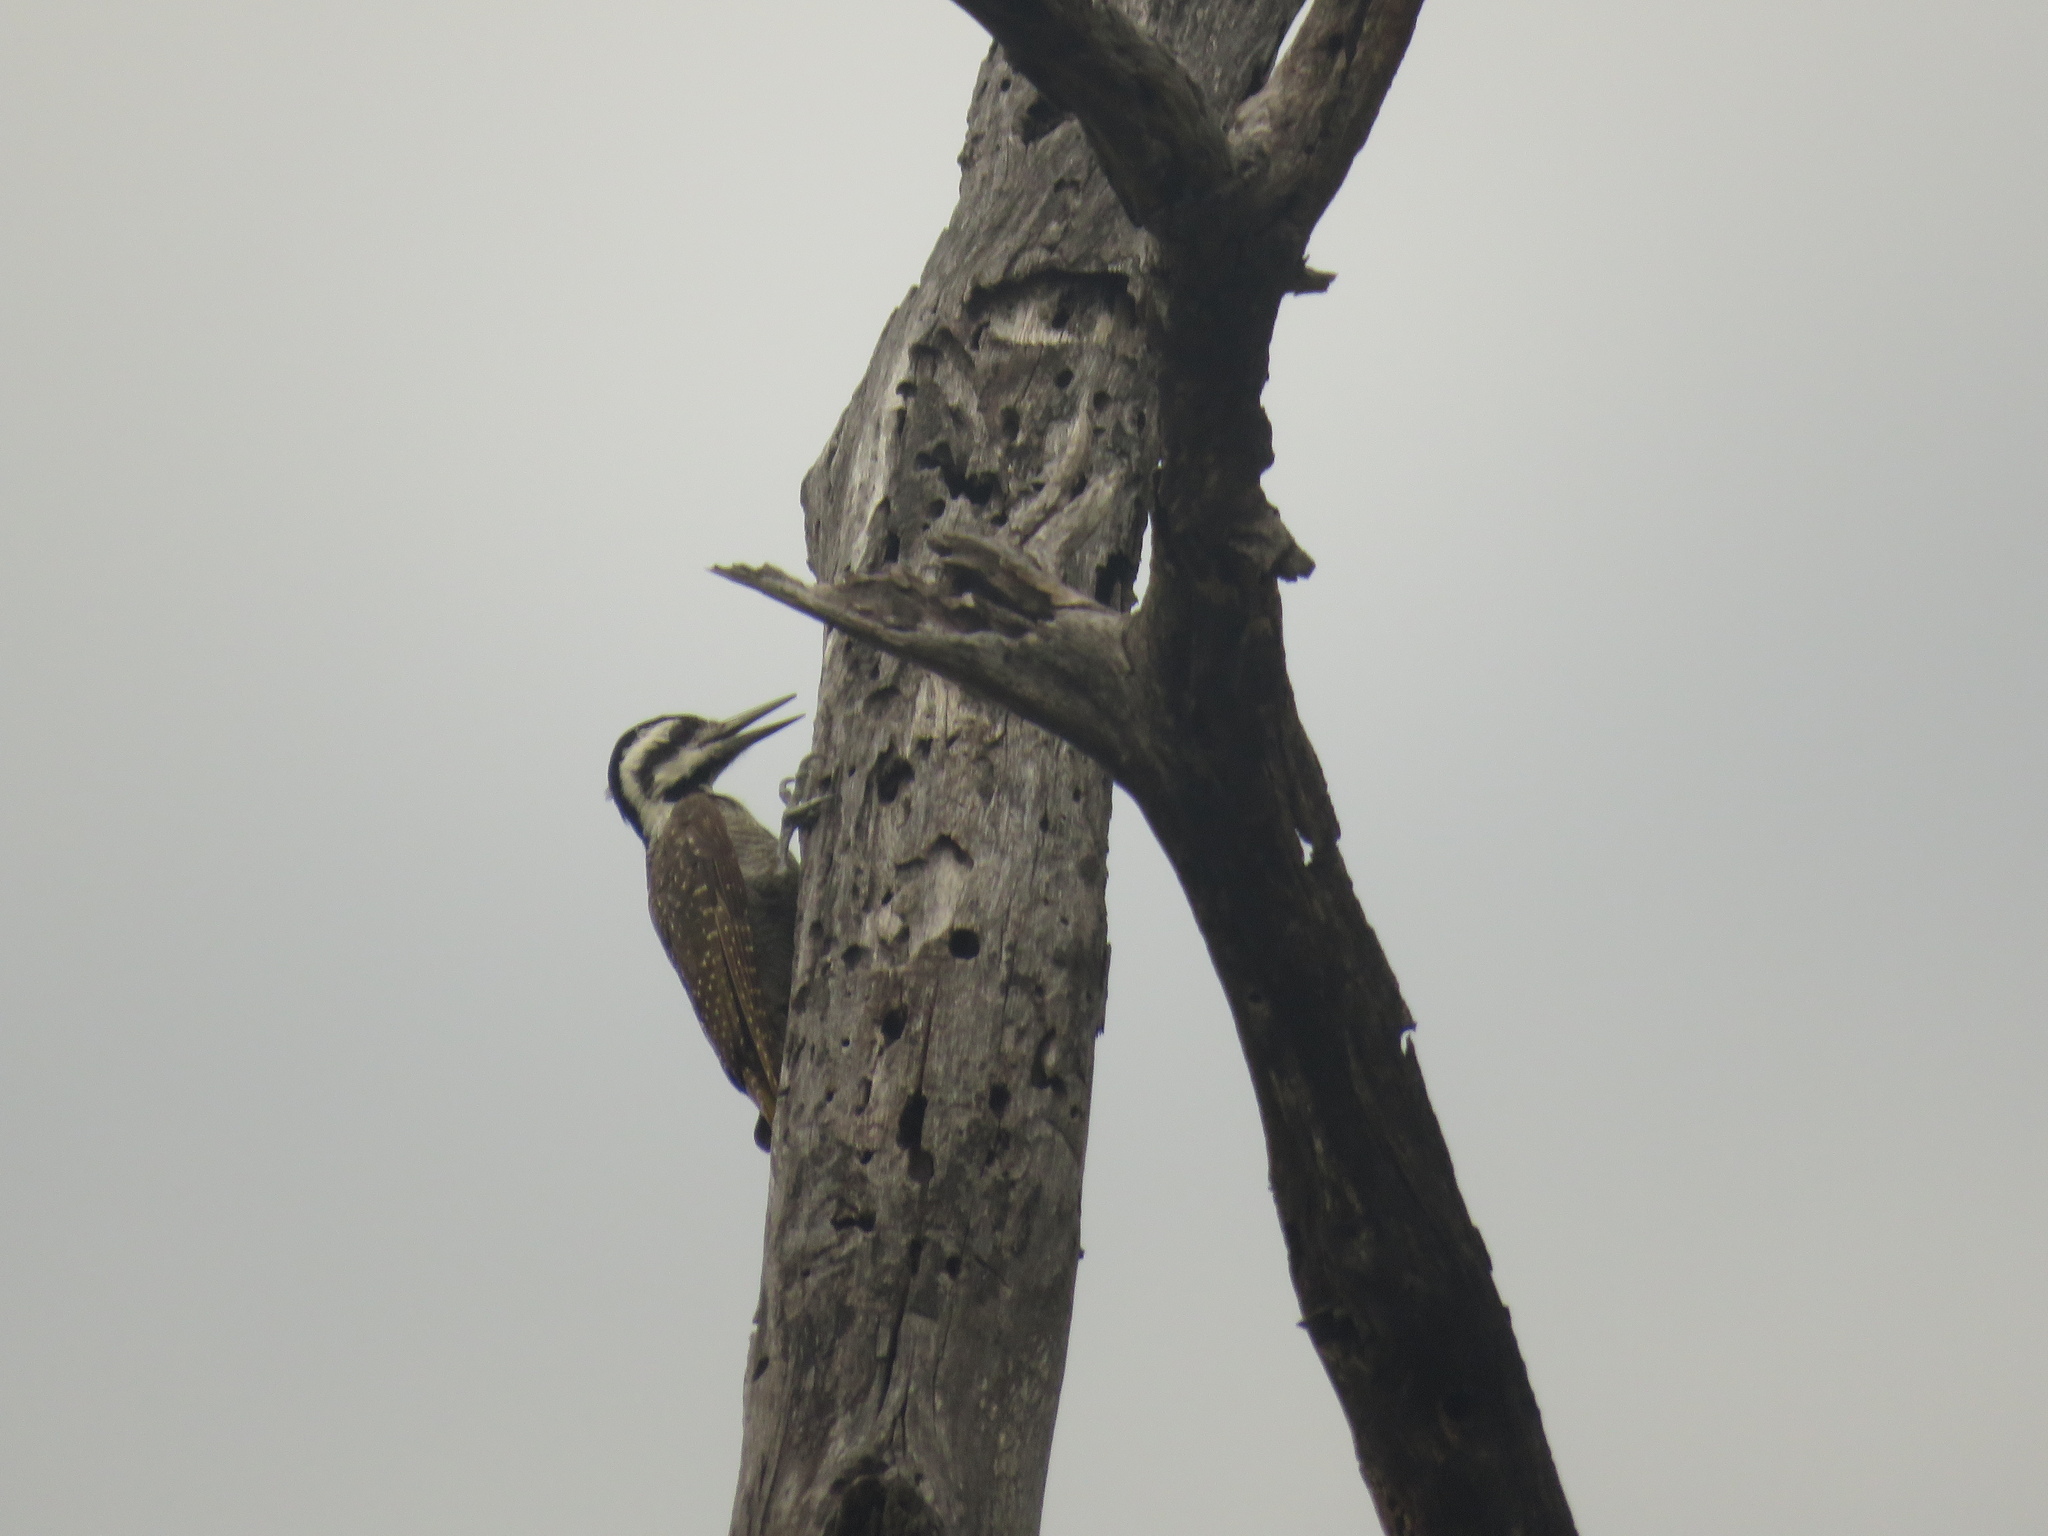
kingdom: Animalia
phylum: Chordata
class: Aves
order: Piciformes
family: Picidae
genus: Chloropicus
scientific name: Chloropicus namaquus
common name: Bearded woodpecker
